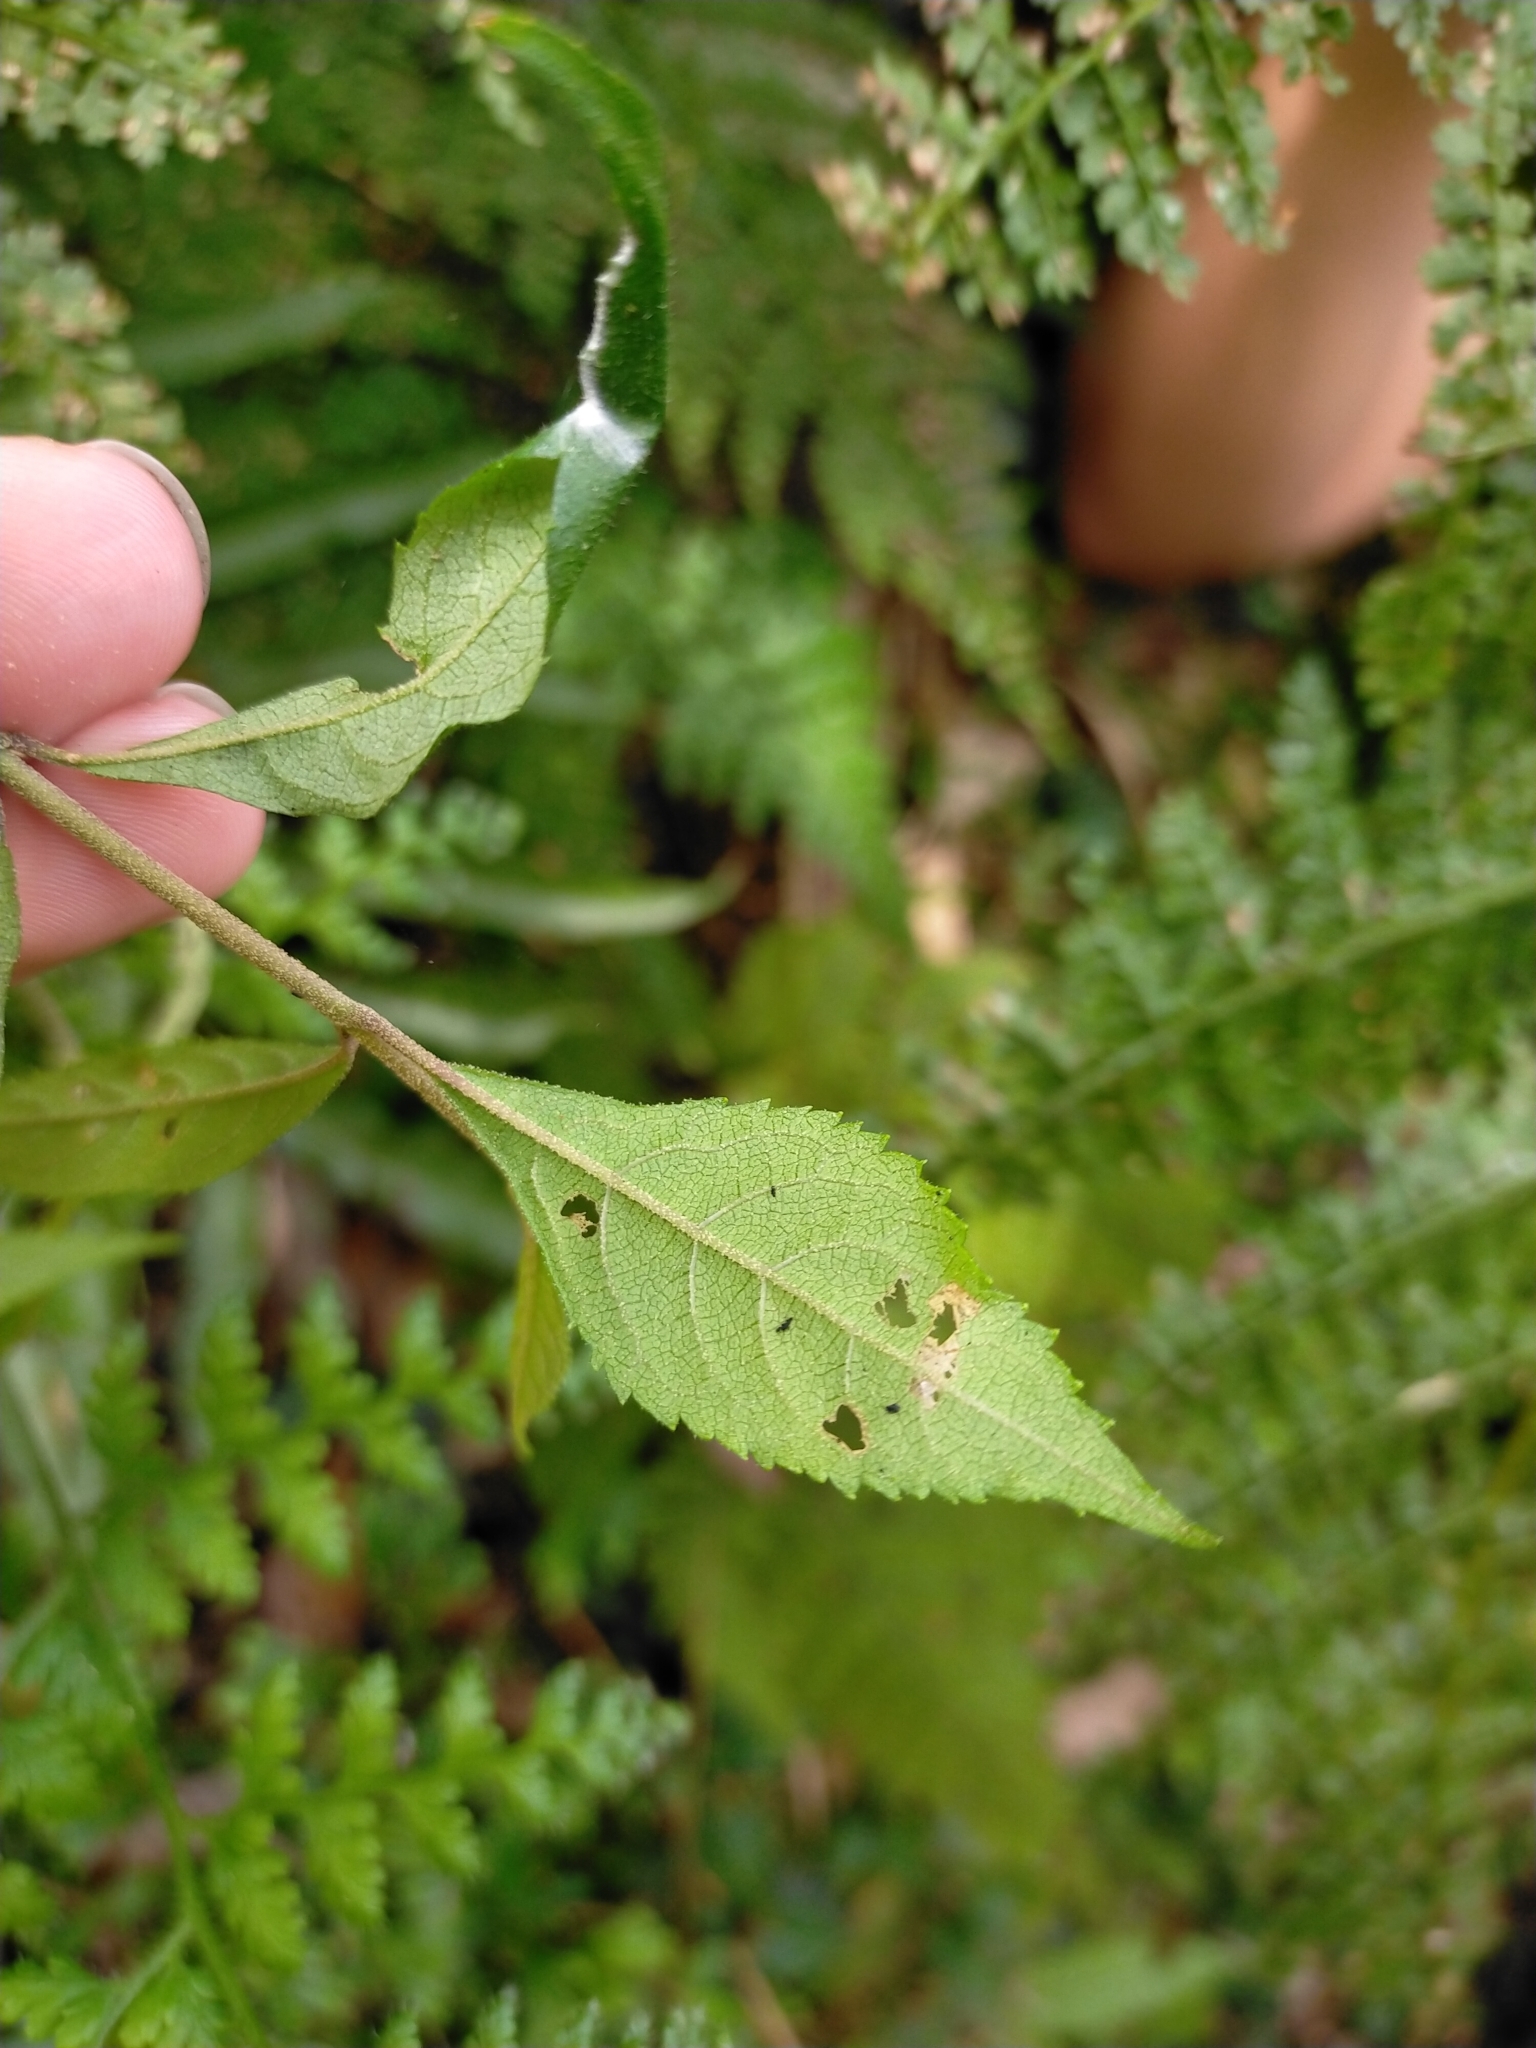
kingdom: Plantae
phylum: Tracheophyta
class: Magnoliopsida
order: Lamiales
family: Lamiaceae
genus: Callicarpa
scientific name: Callicarpa randaiensis
